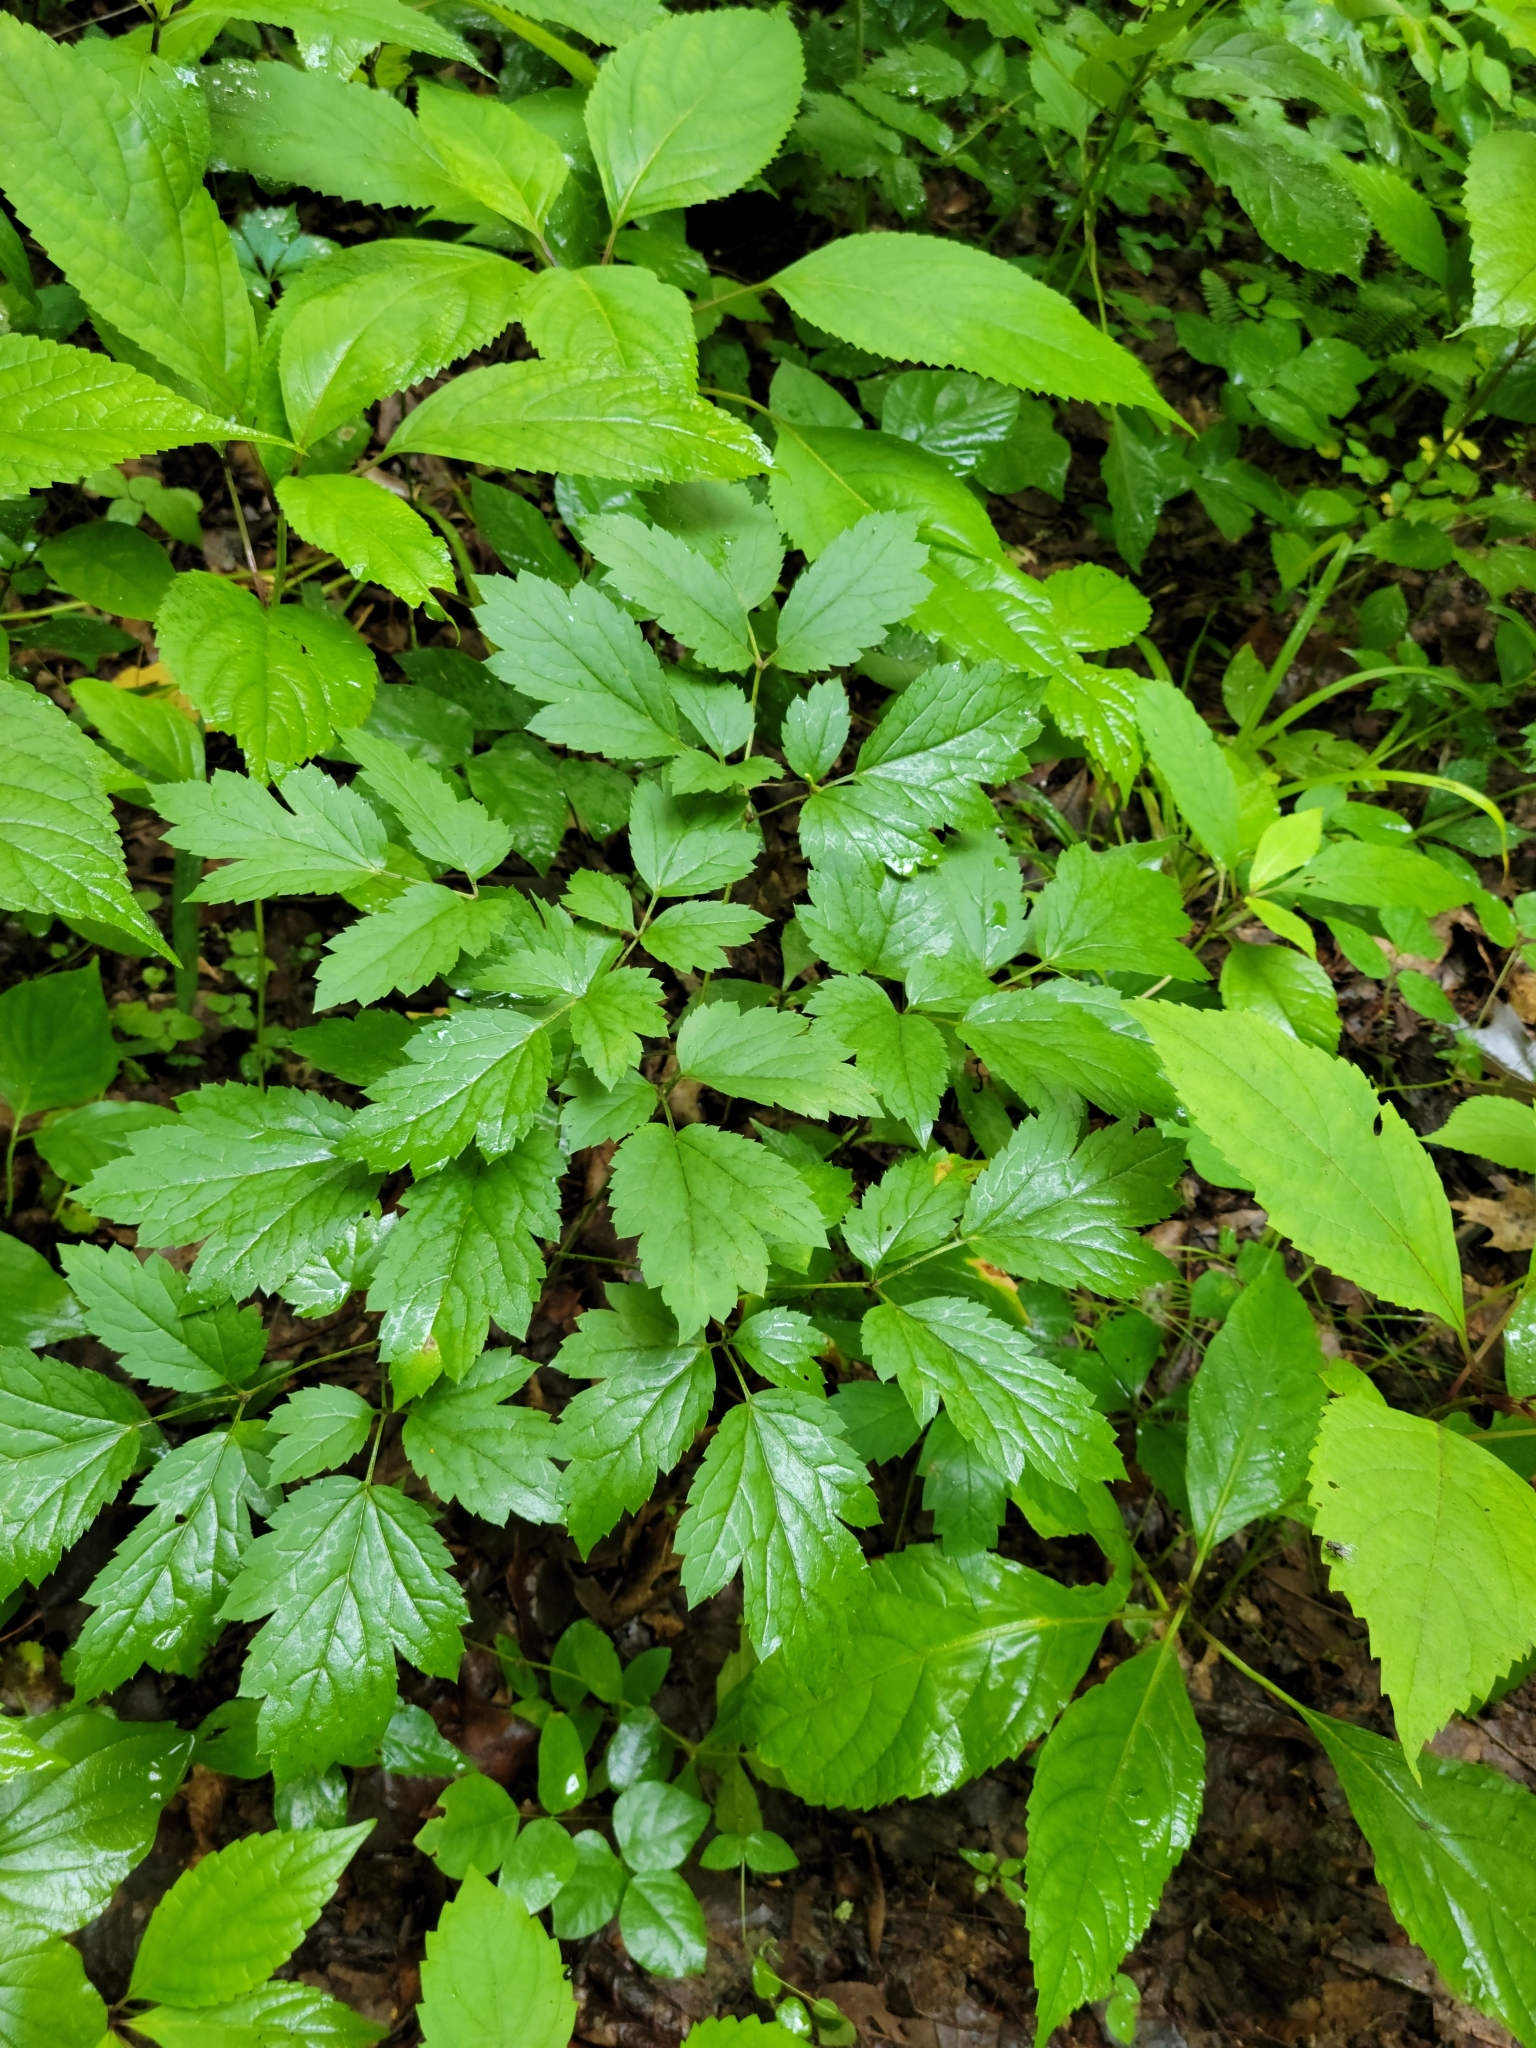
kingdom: Plantae
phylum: Tracheophyta
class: Magnoliopsida
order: Ranunculales
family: Ranunculaceae
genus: Actaea
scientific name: Actaea racemosa
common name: Black cohosh
